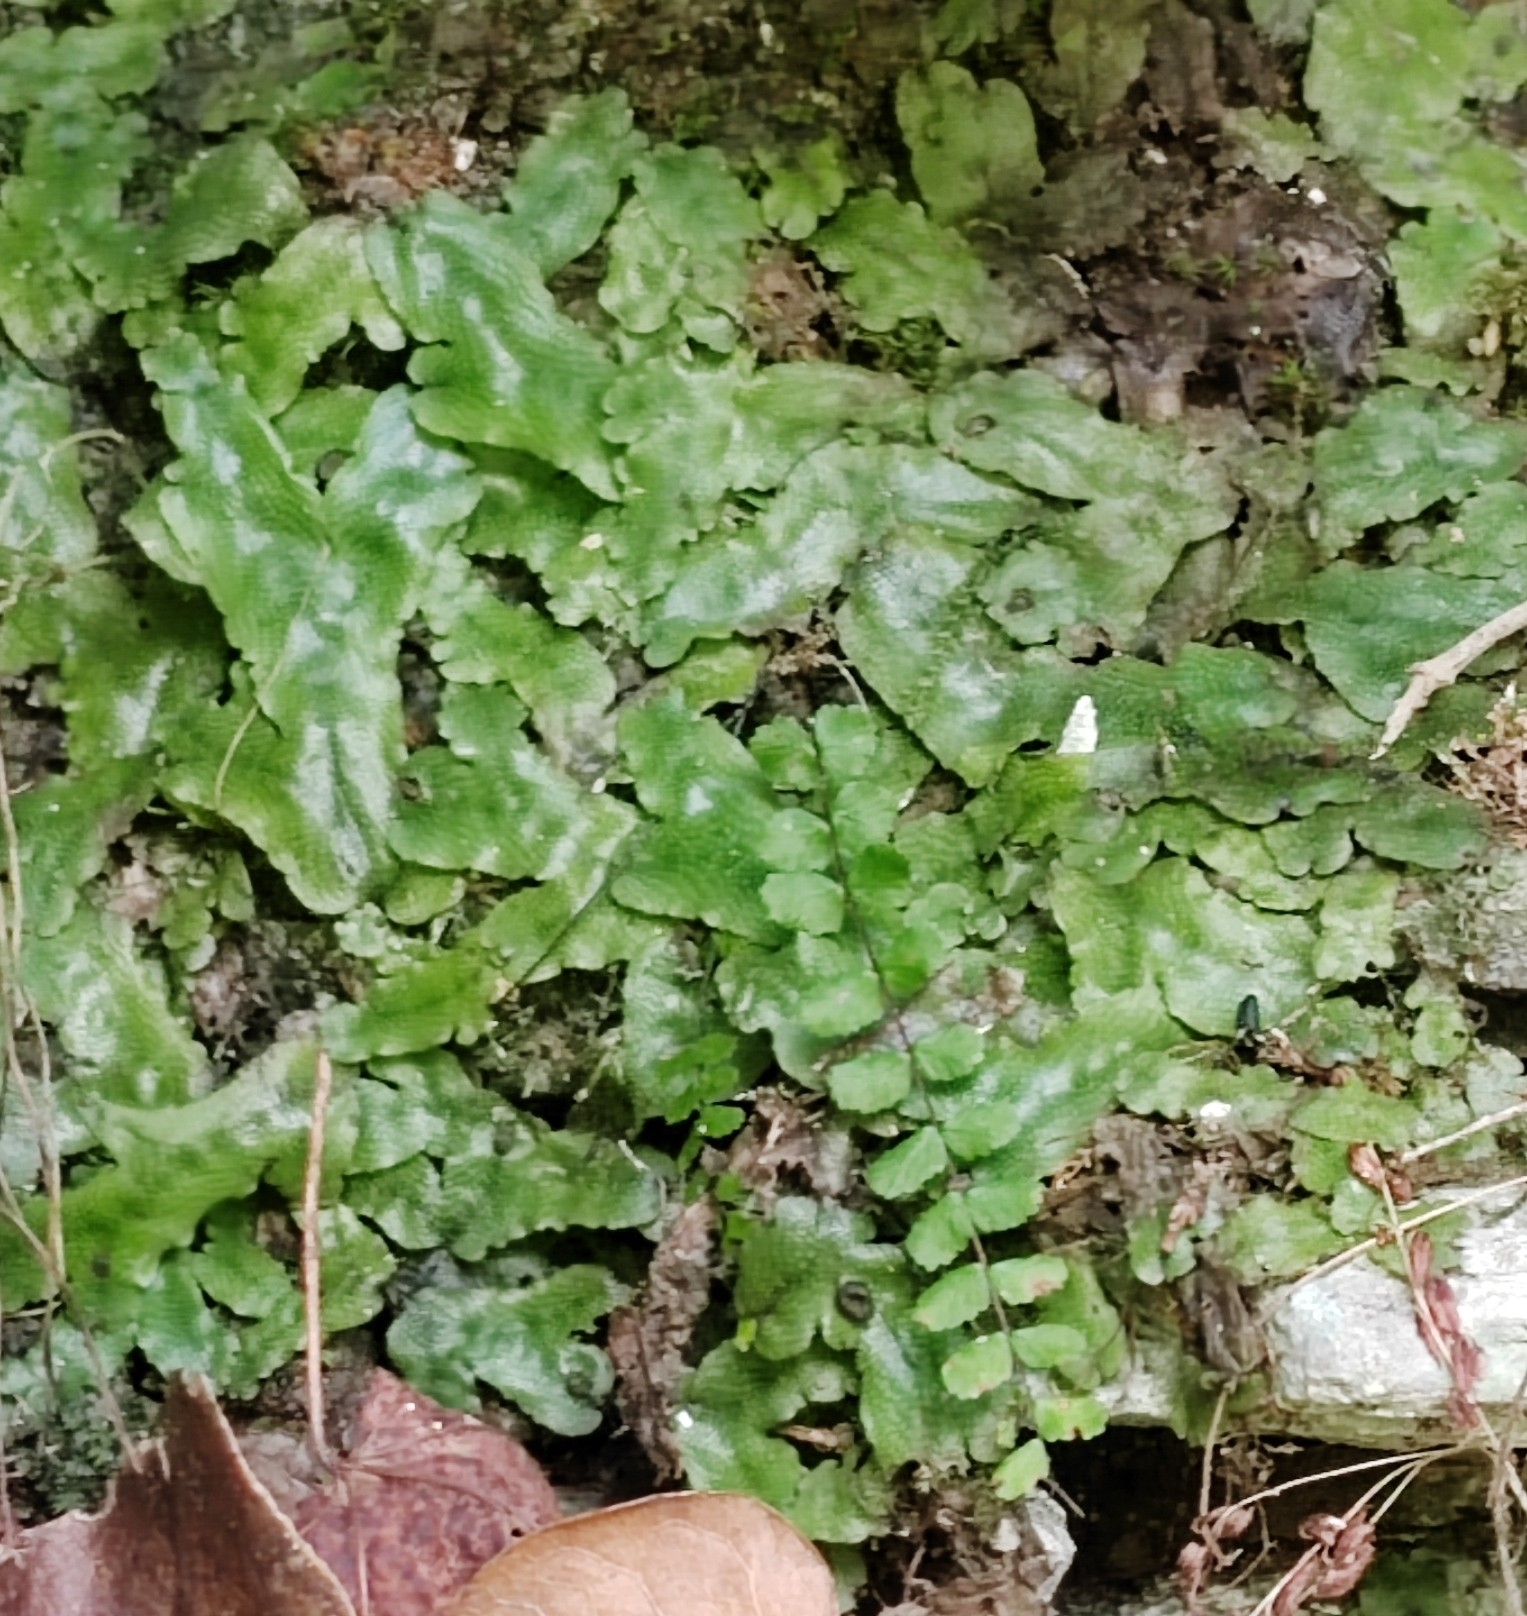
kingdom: Plantae
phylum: Marchantiophyta
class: Marchantiopsida
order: Marchantiales
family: Conocephalaceae
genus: Conocephalum
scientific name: Conocephalum conicum
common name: Great scented liverwort
